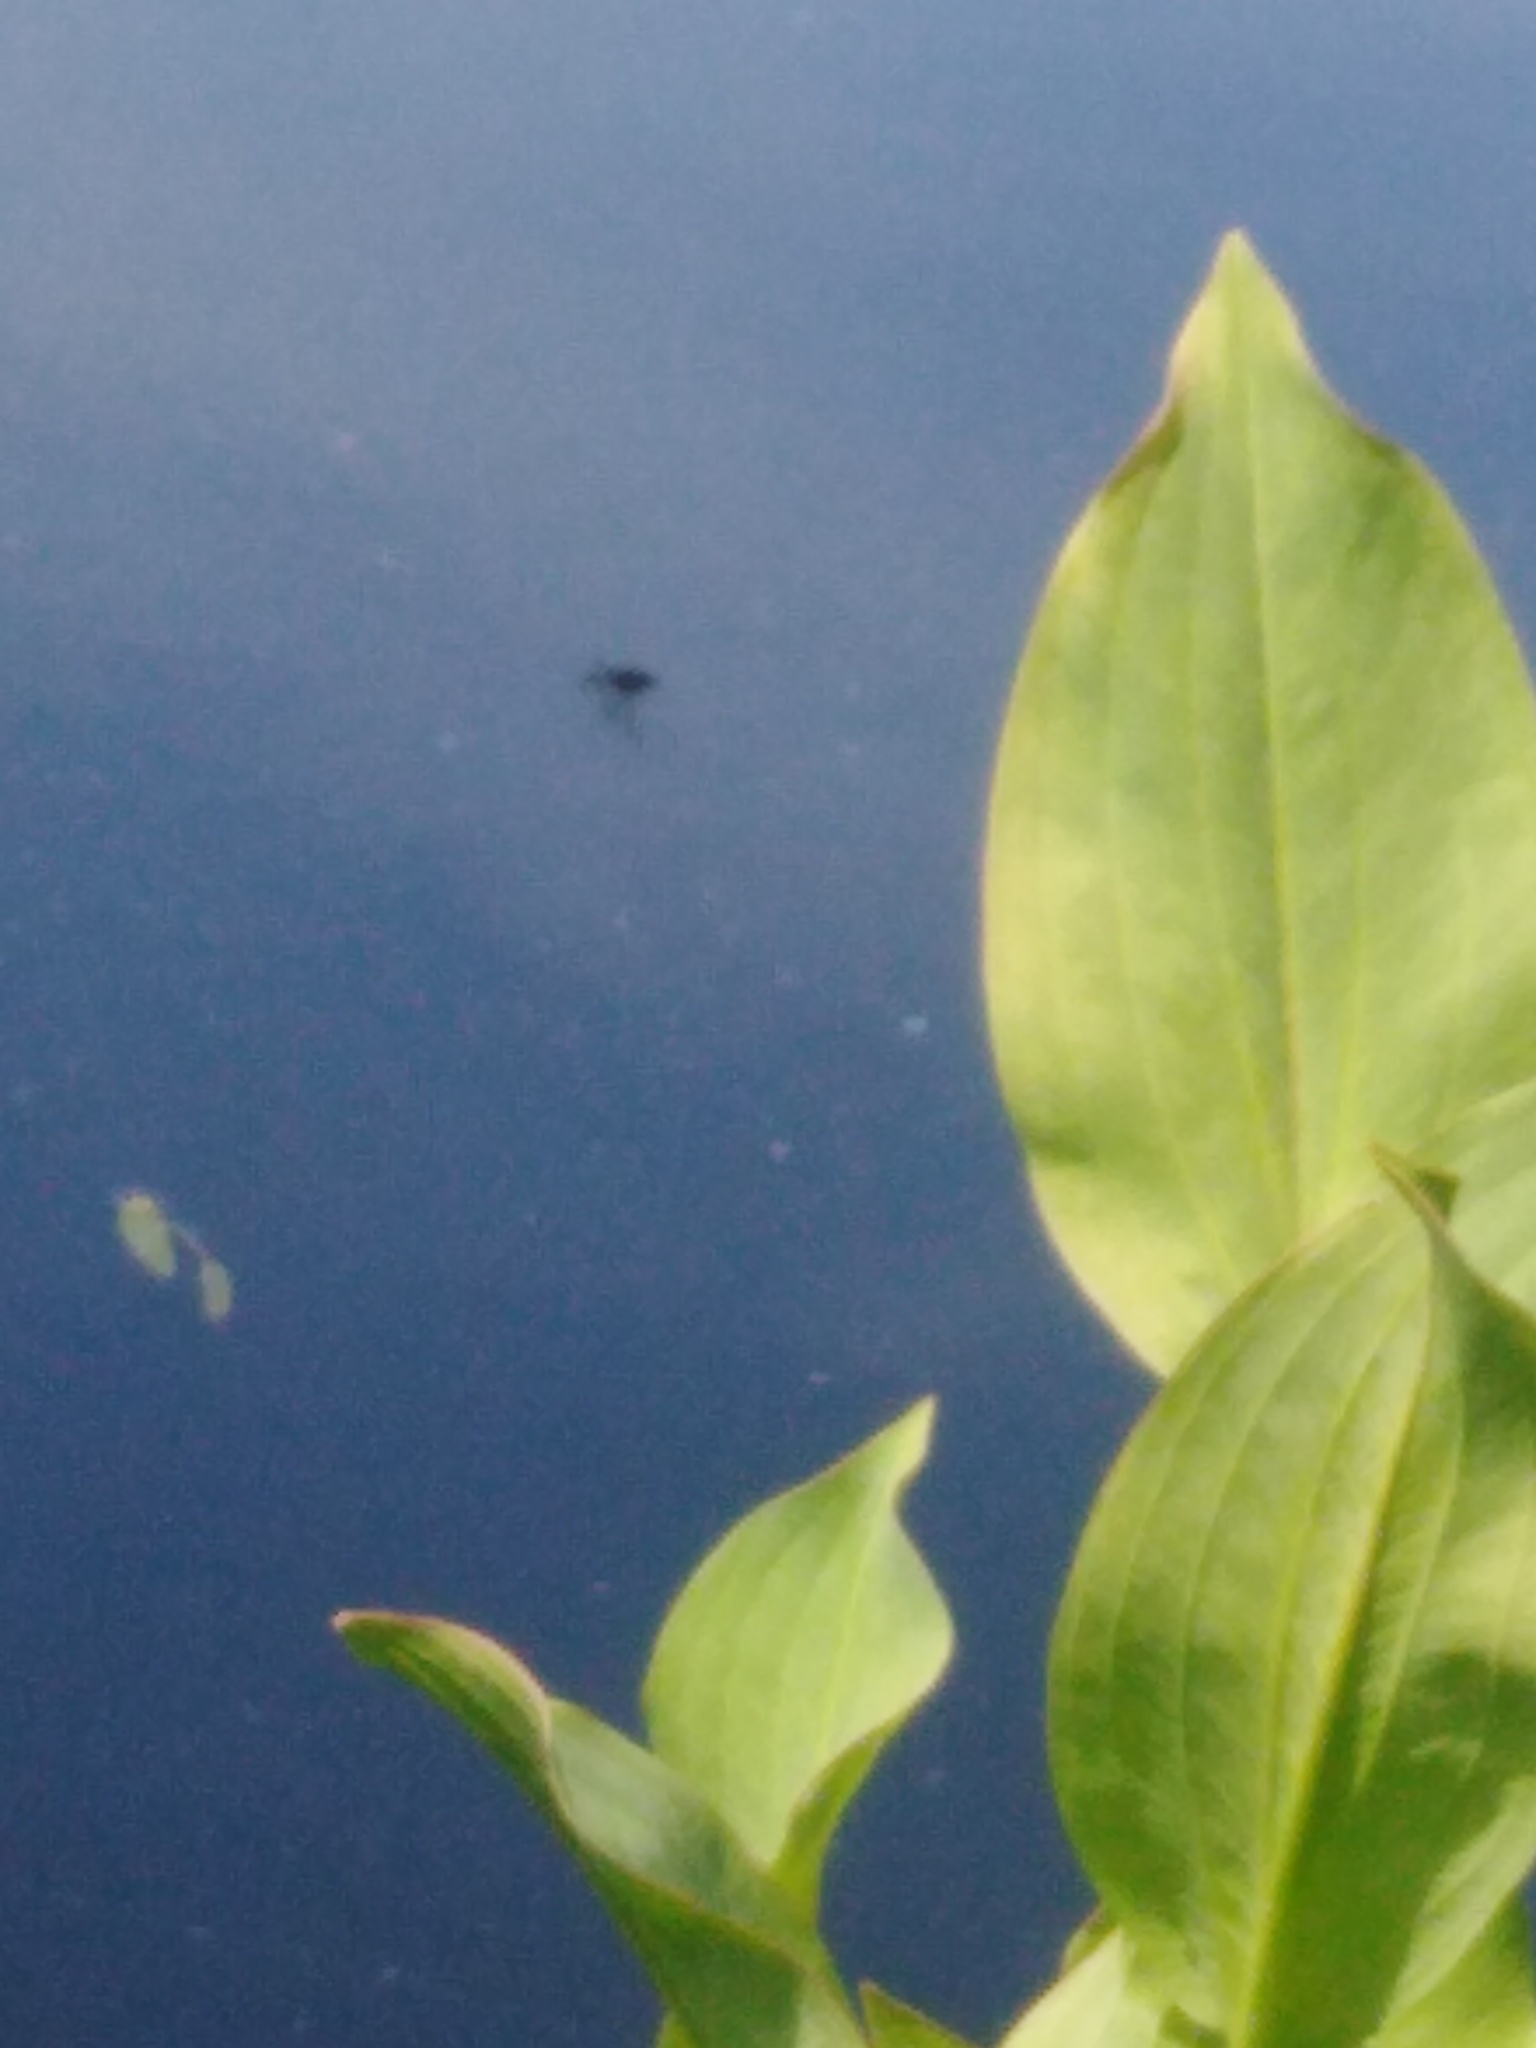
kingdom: Plantae
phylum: Tracheophyta
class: Liliopsida
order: Alismatales
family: Alismataceae
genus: Alisma
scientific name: Alisma plantago-aquatica
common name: Water-plantain
